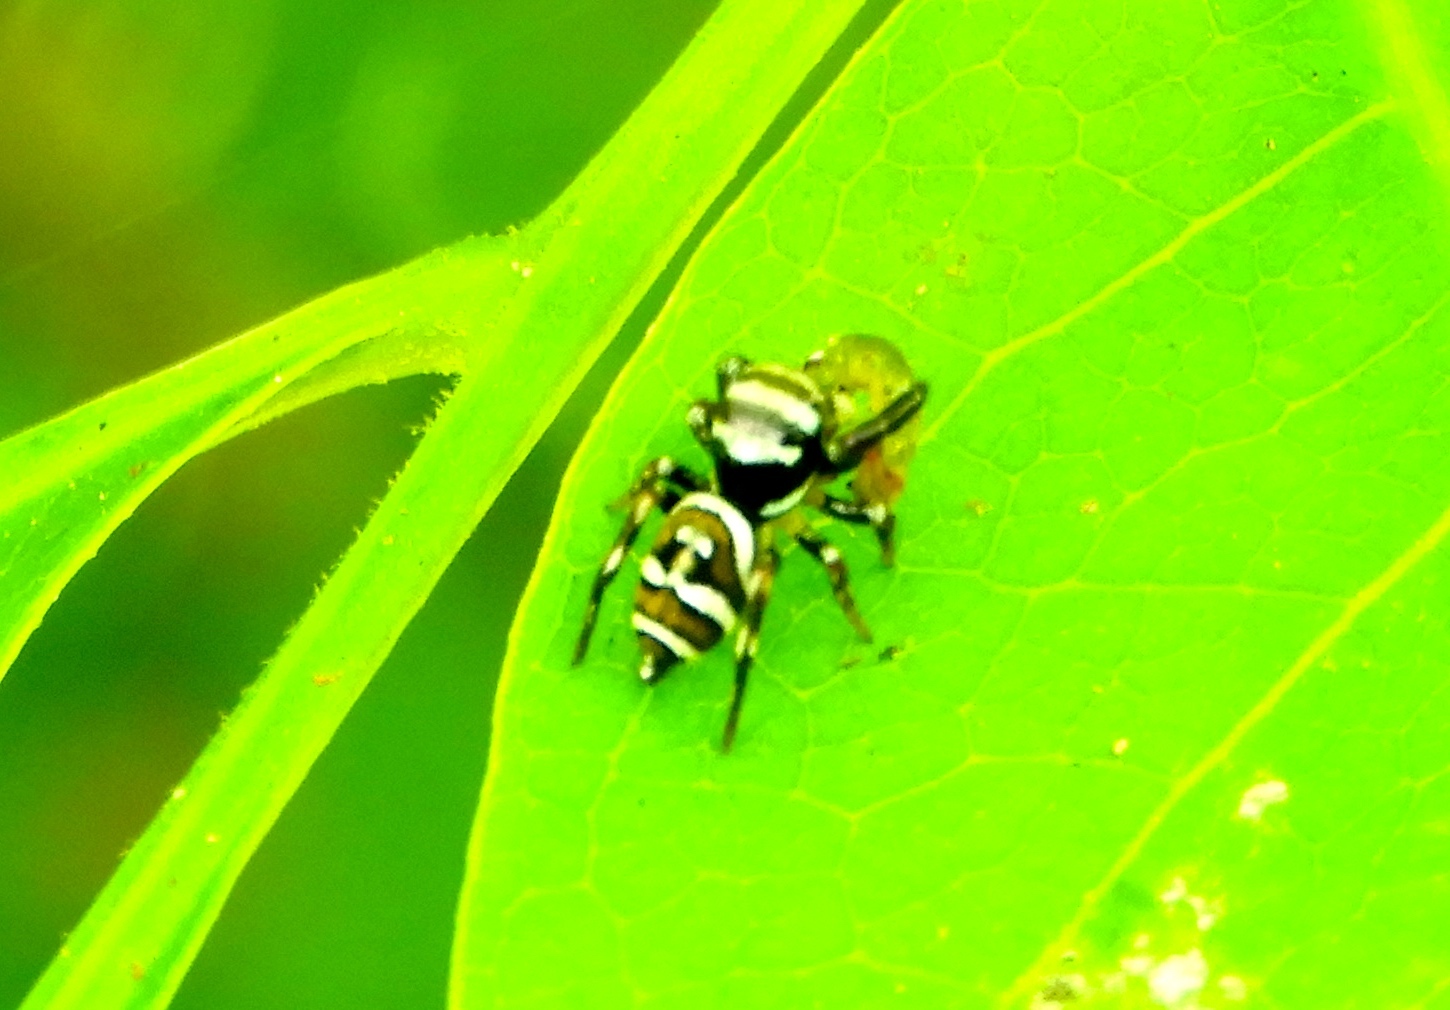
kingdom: Animalia
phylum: Arthropoda
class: Arachnida
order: Araneae
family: Salticidae
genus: Sassacus
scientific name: Sassacus
